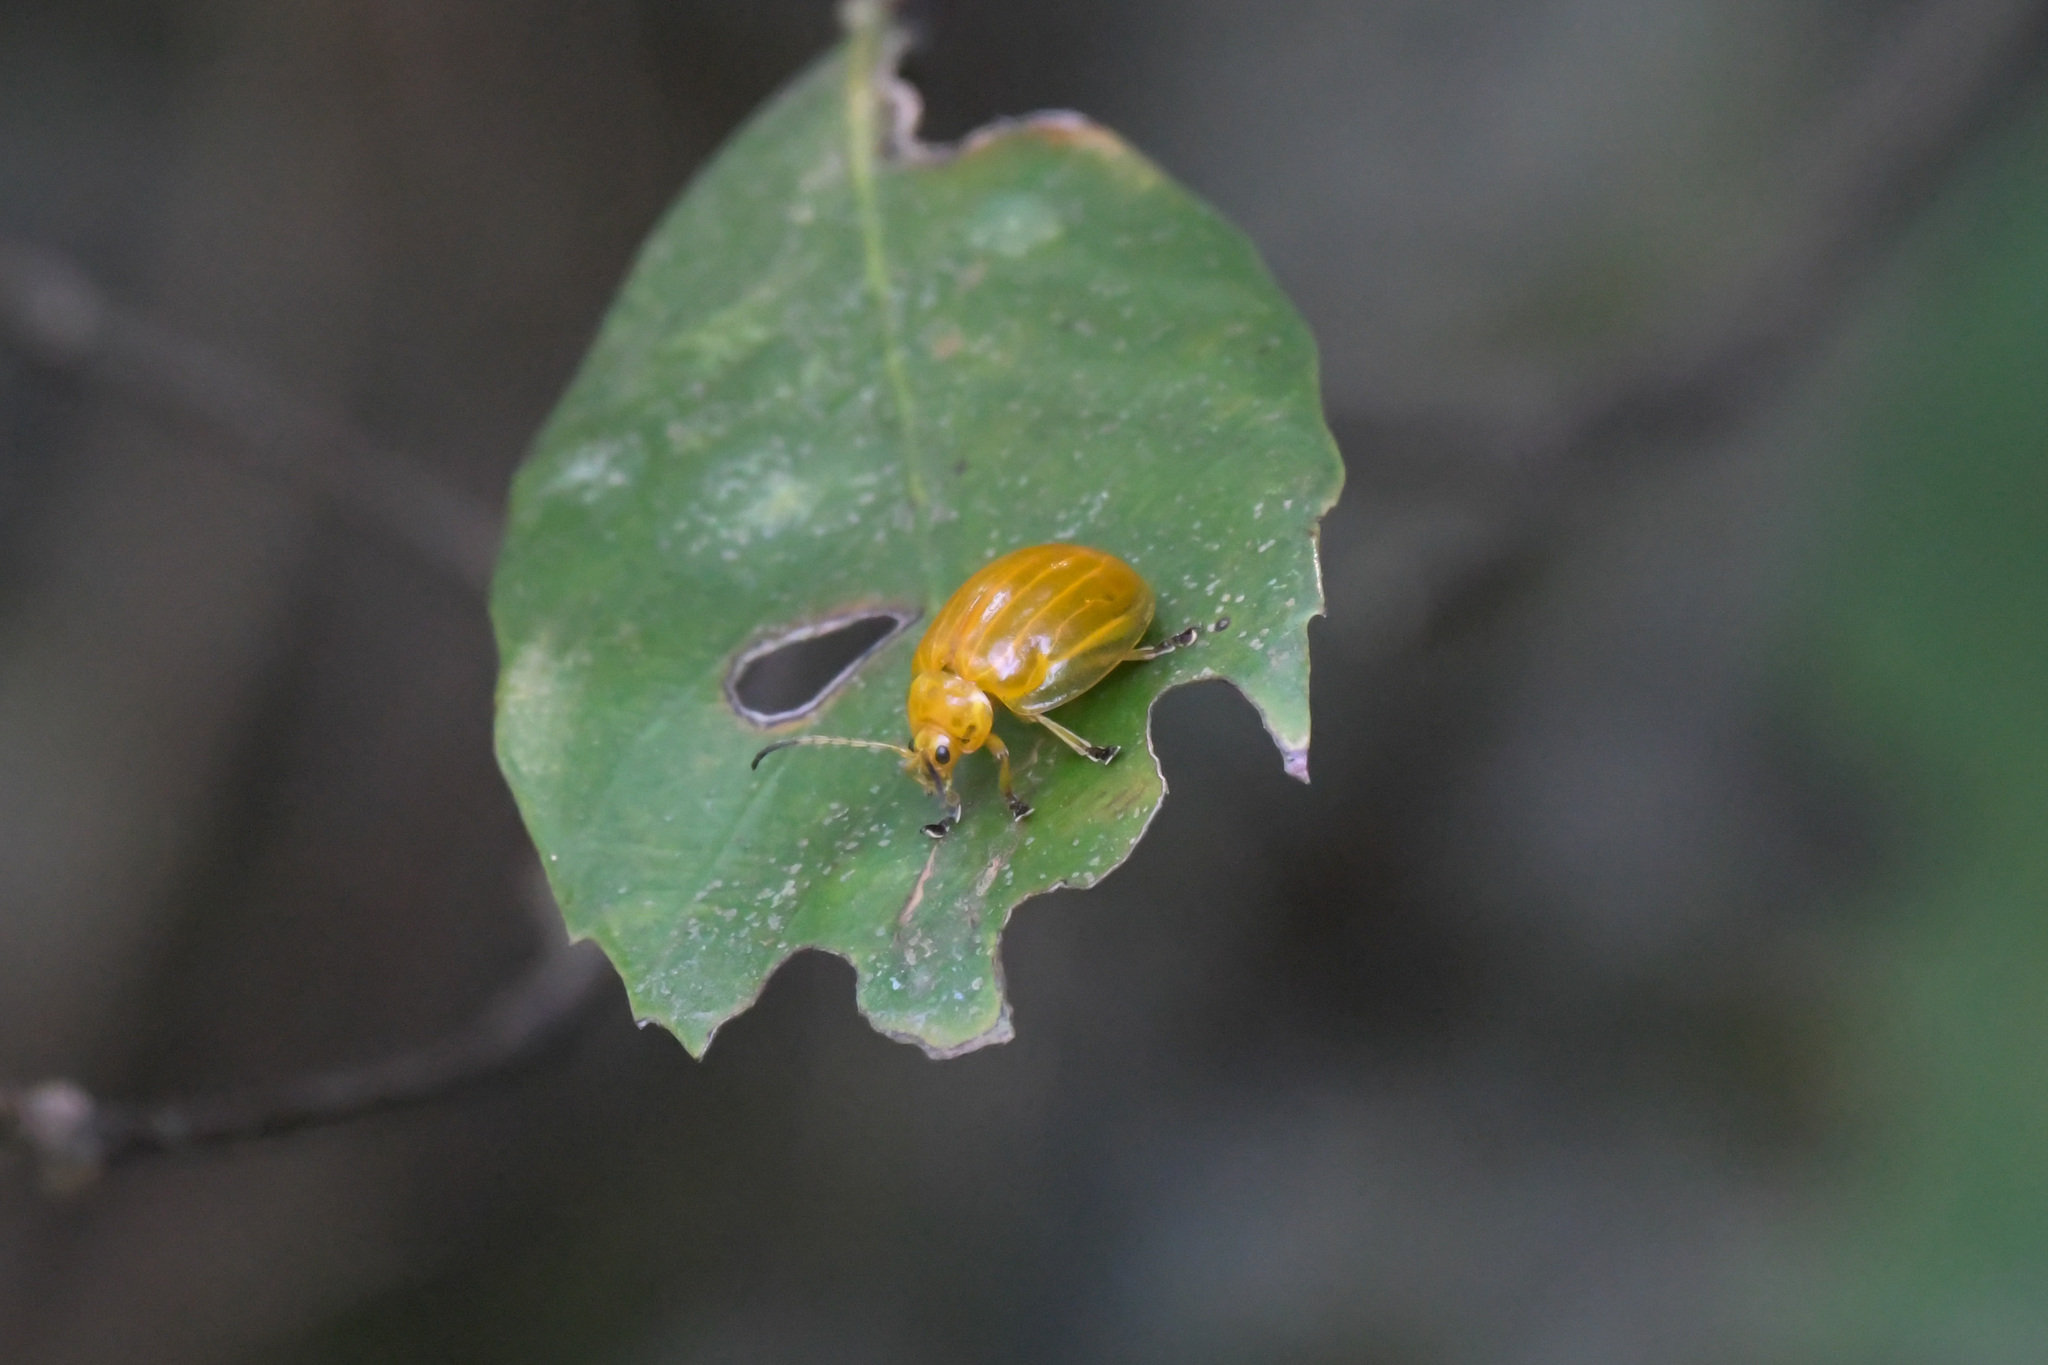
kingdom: Animalia
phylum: Arthropoda
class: Insecta
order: Coleoptera
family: Chrysomelidae
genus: Oides
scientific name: Oides tarsata
